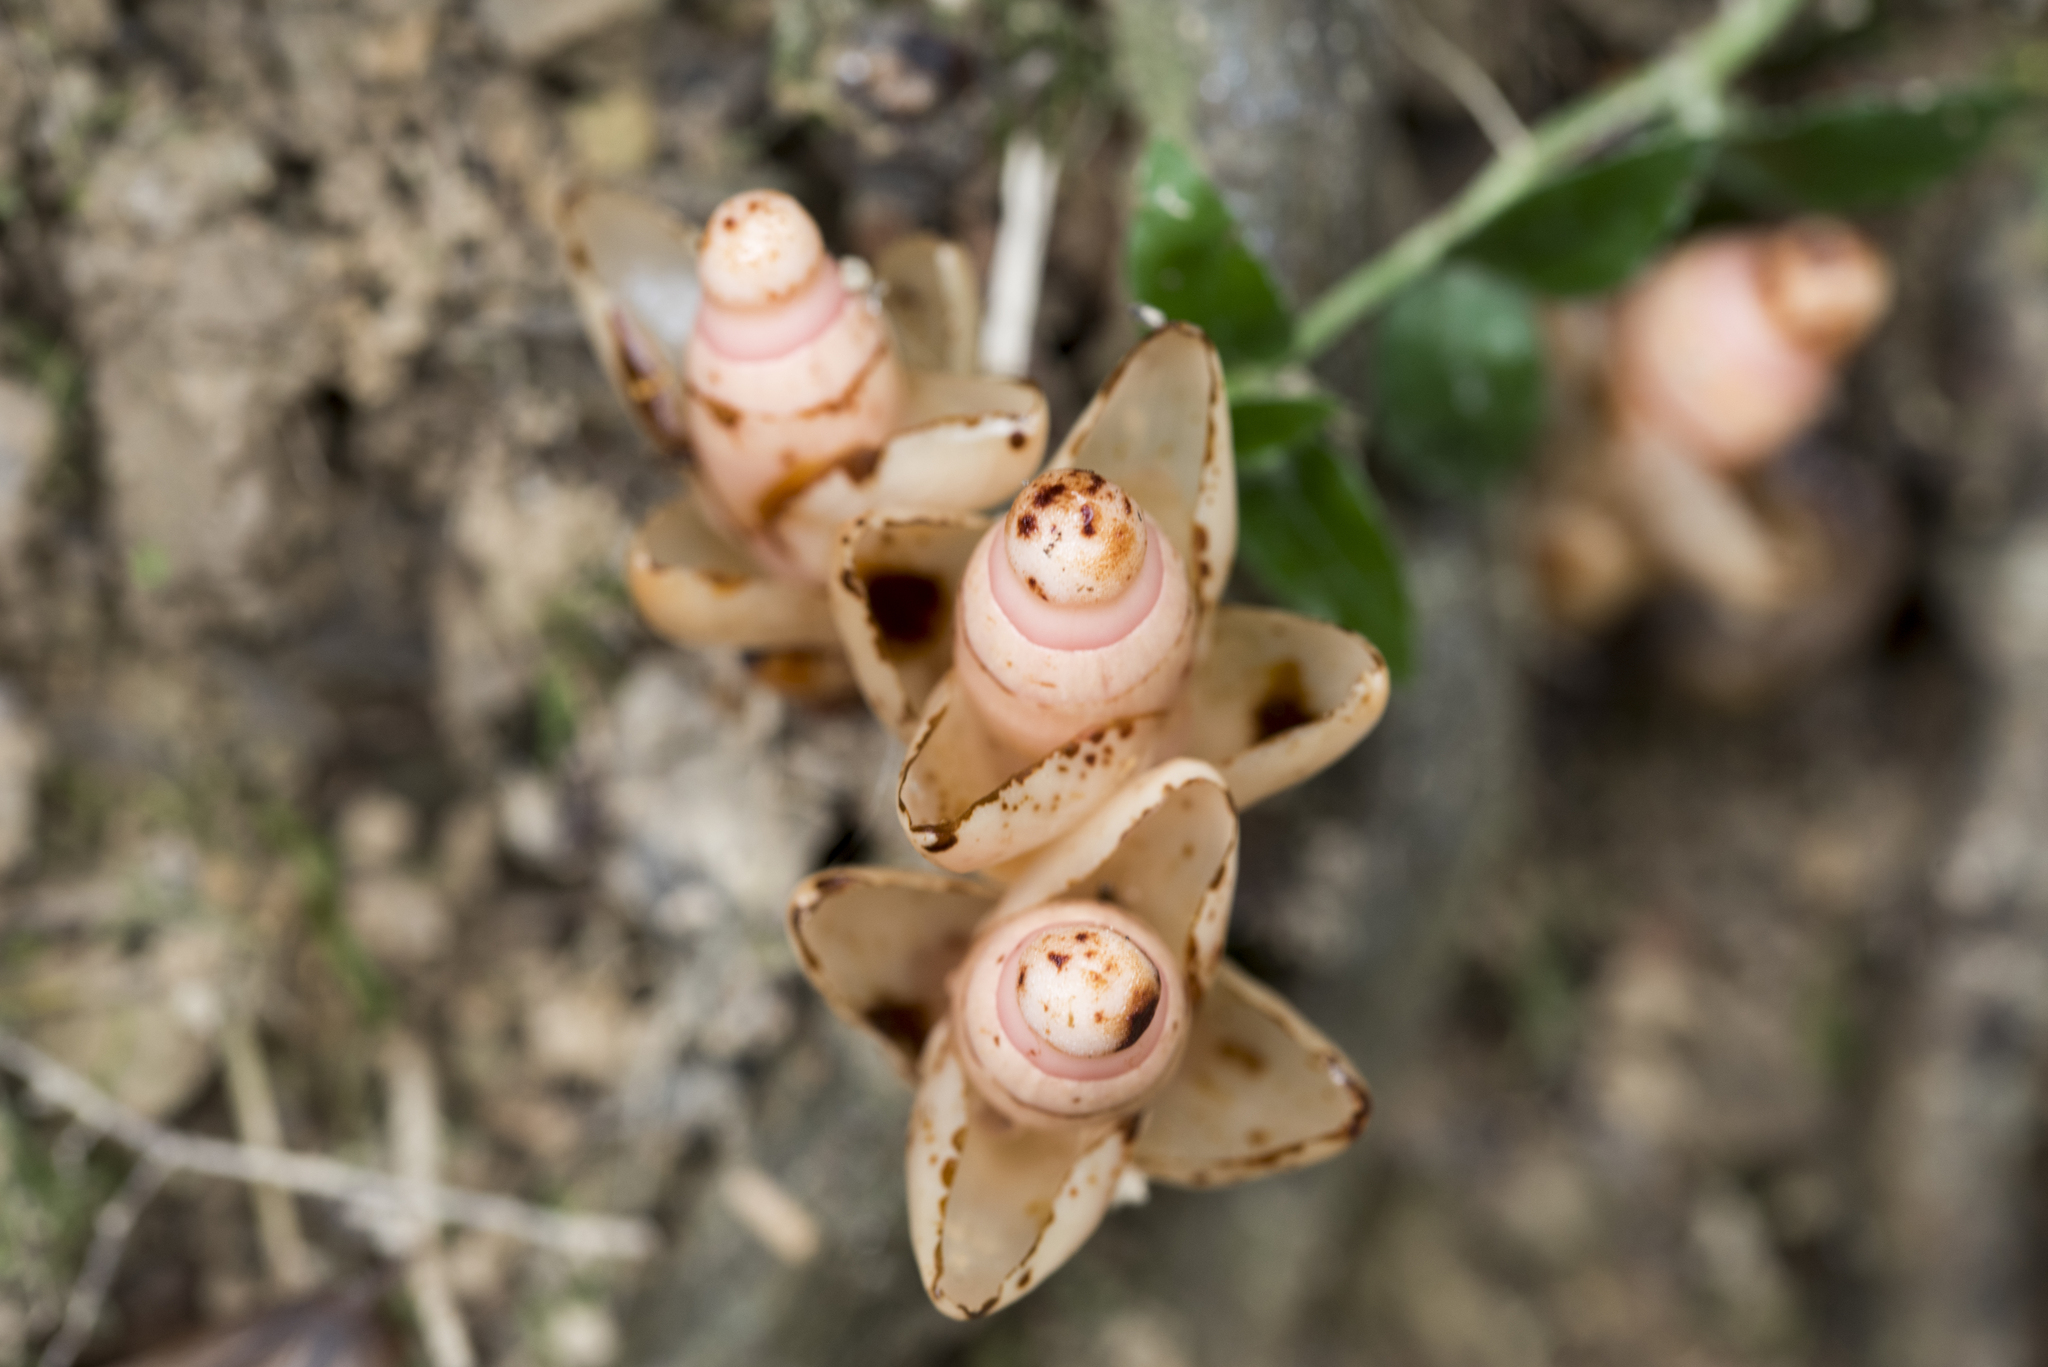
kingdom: Plantae
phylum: Tracheophyta
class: Magnoliopsida
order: Ericales
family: Mitrastemonaceae
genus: Mitrastemon
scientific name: Mitrastemon yamamotoi
